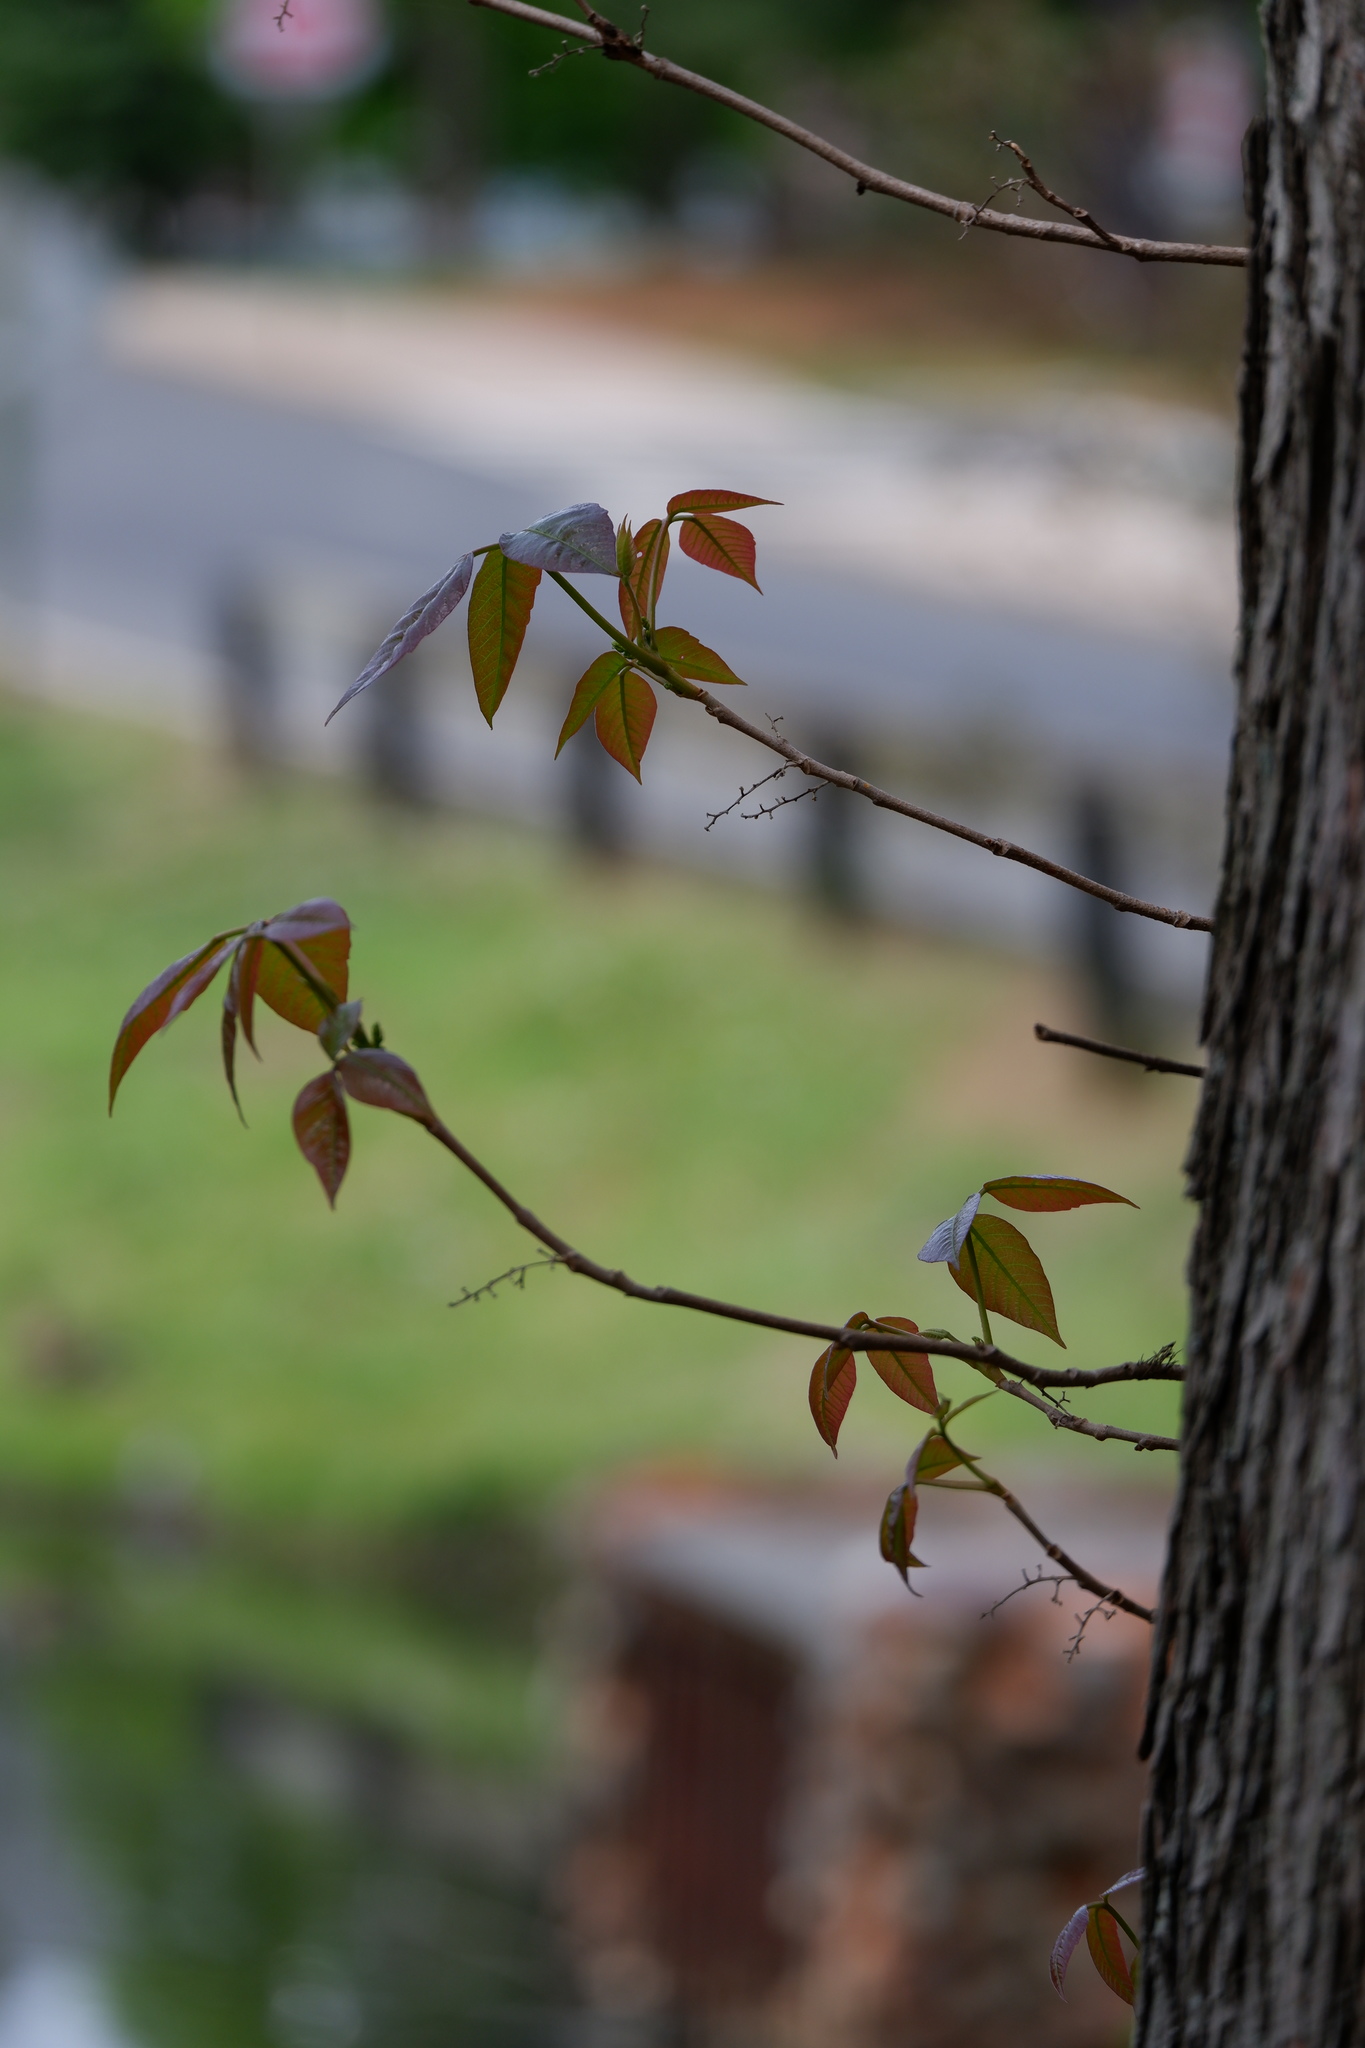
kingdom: Plantae
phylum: Tracheophyta
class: Magnoliopsida
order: Sapindales
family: Anacardiaceae
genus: Toxicodendron
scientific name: Toxicodendron radicans
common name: Poison ivy
